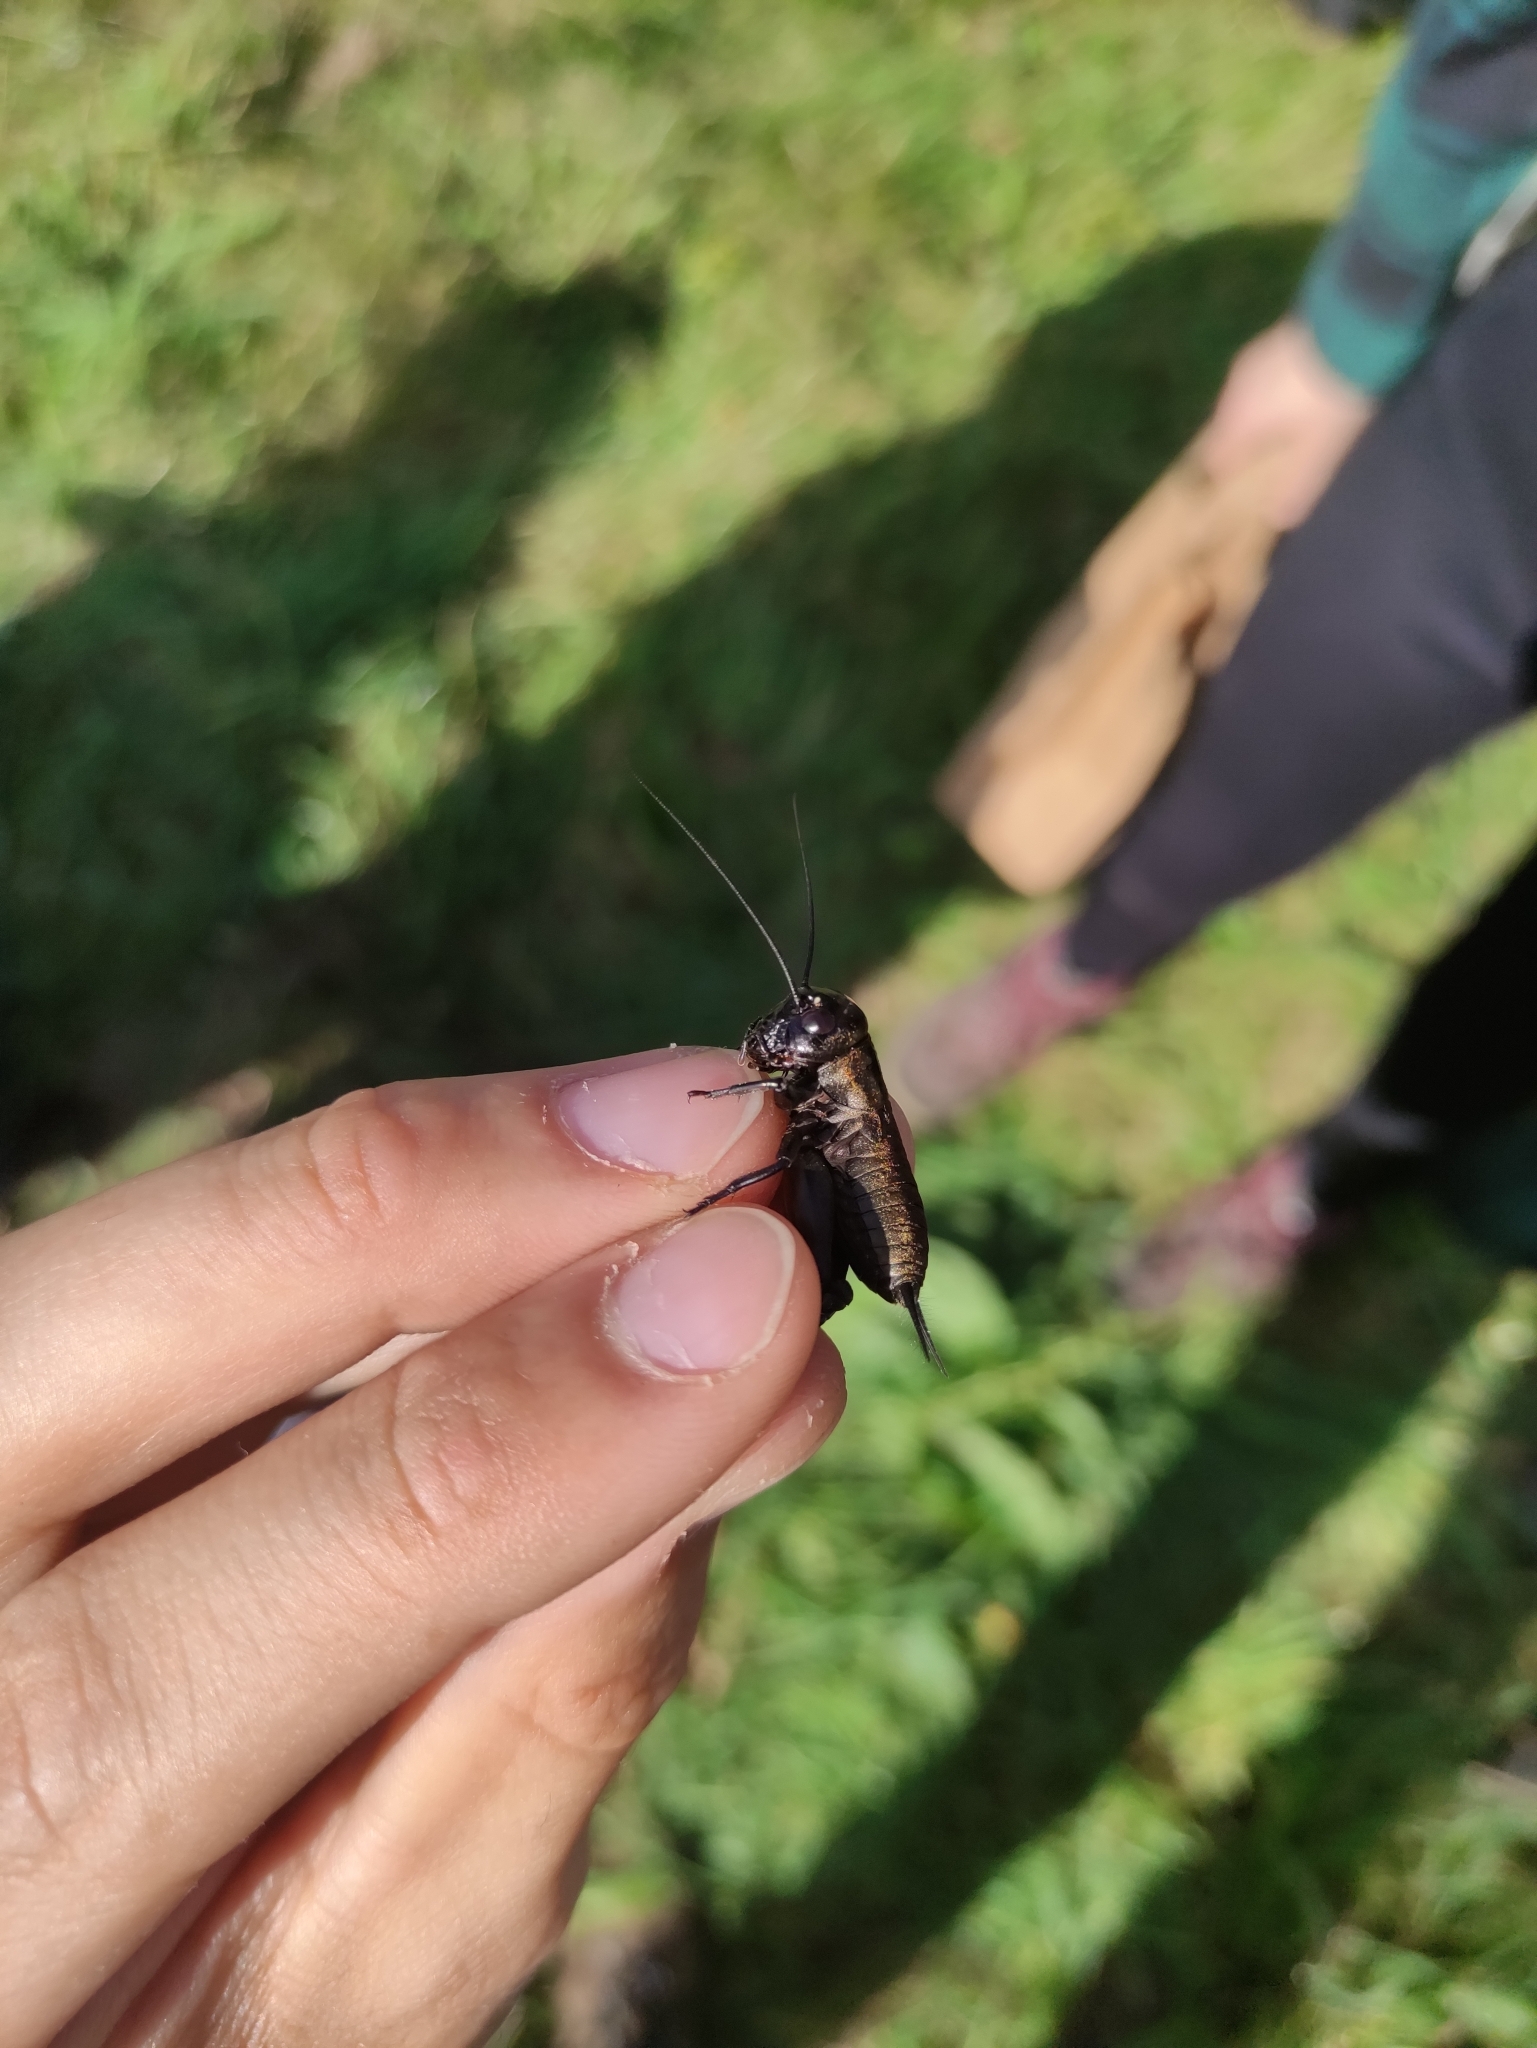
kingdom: Animalia
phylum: Arthropoda
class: Insecta
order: Orthoptera
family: Gryllidae
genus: Gryllus
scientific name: Gryllus campestris
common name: Field cricket
